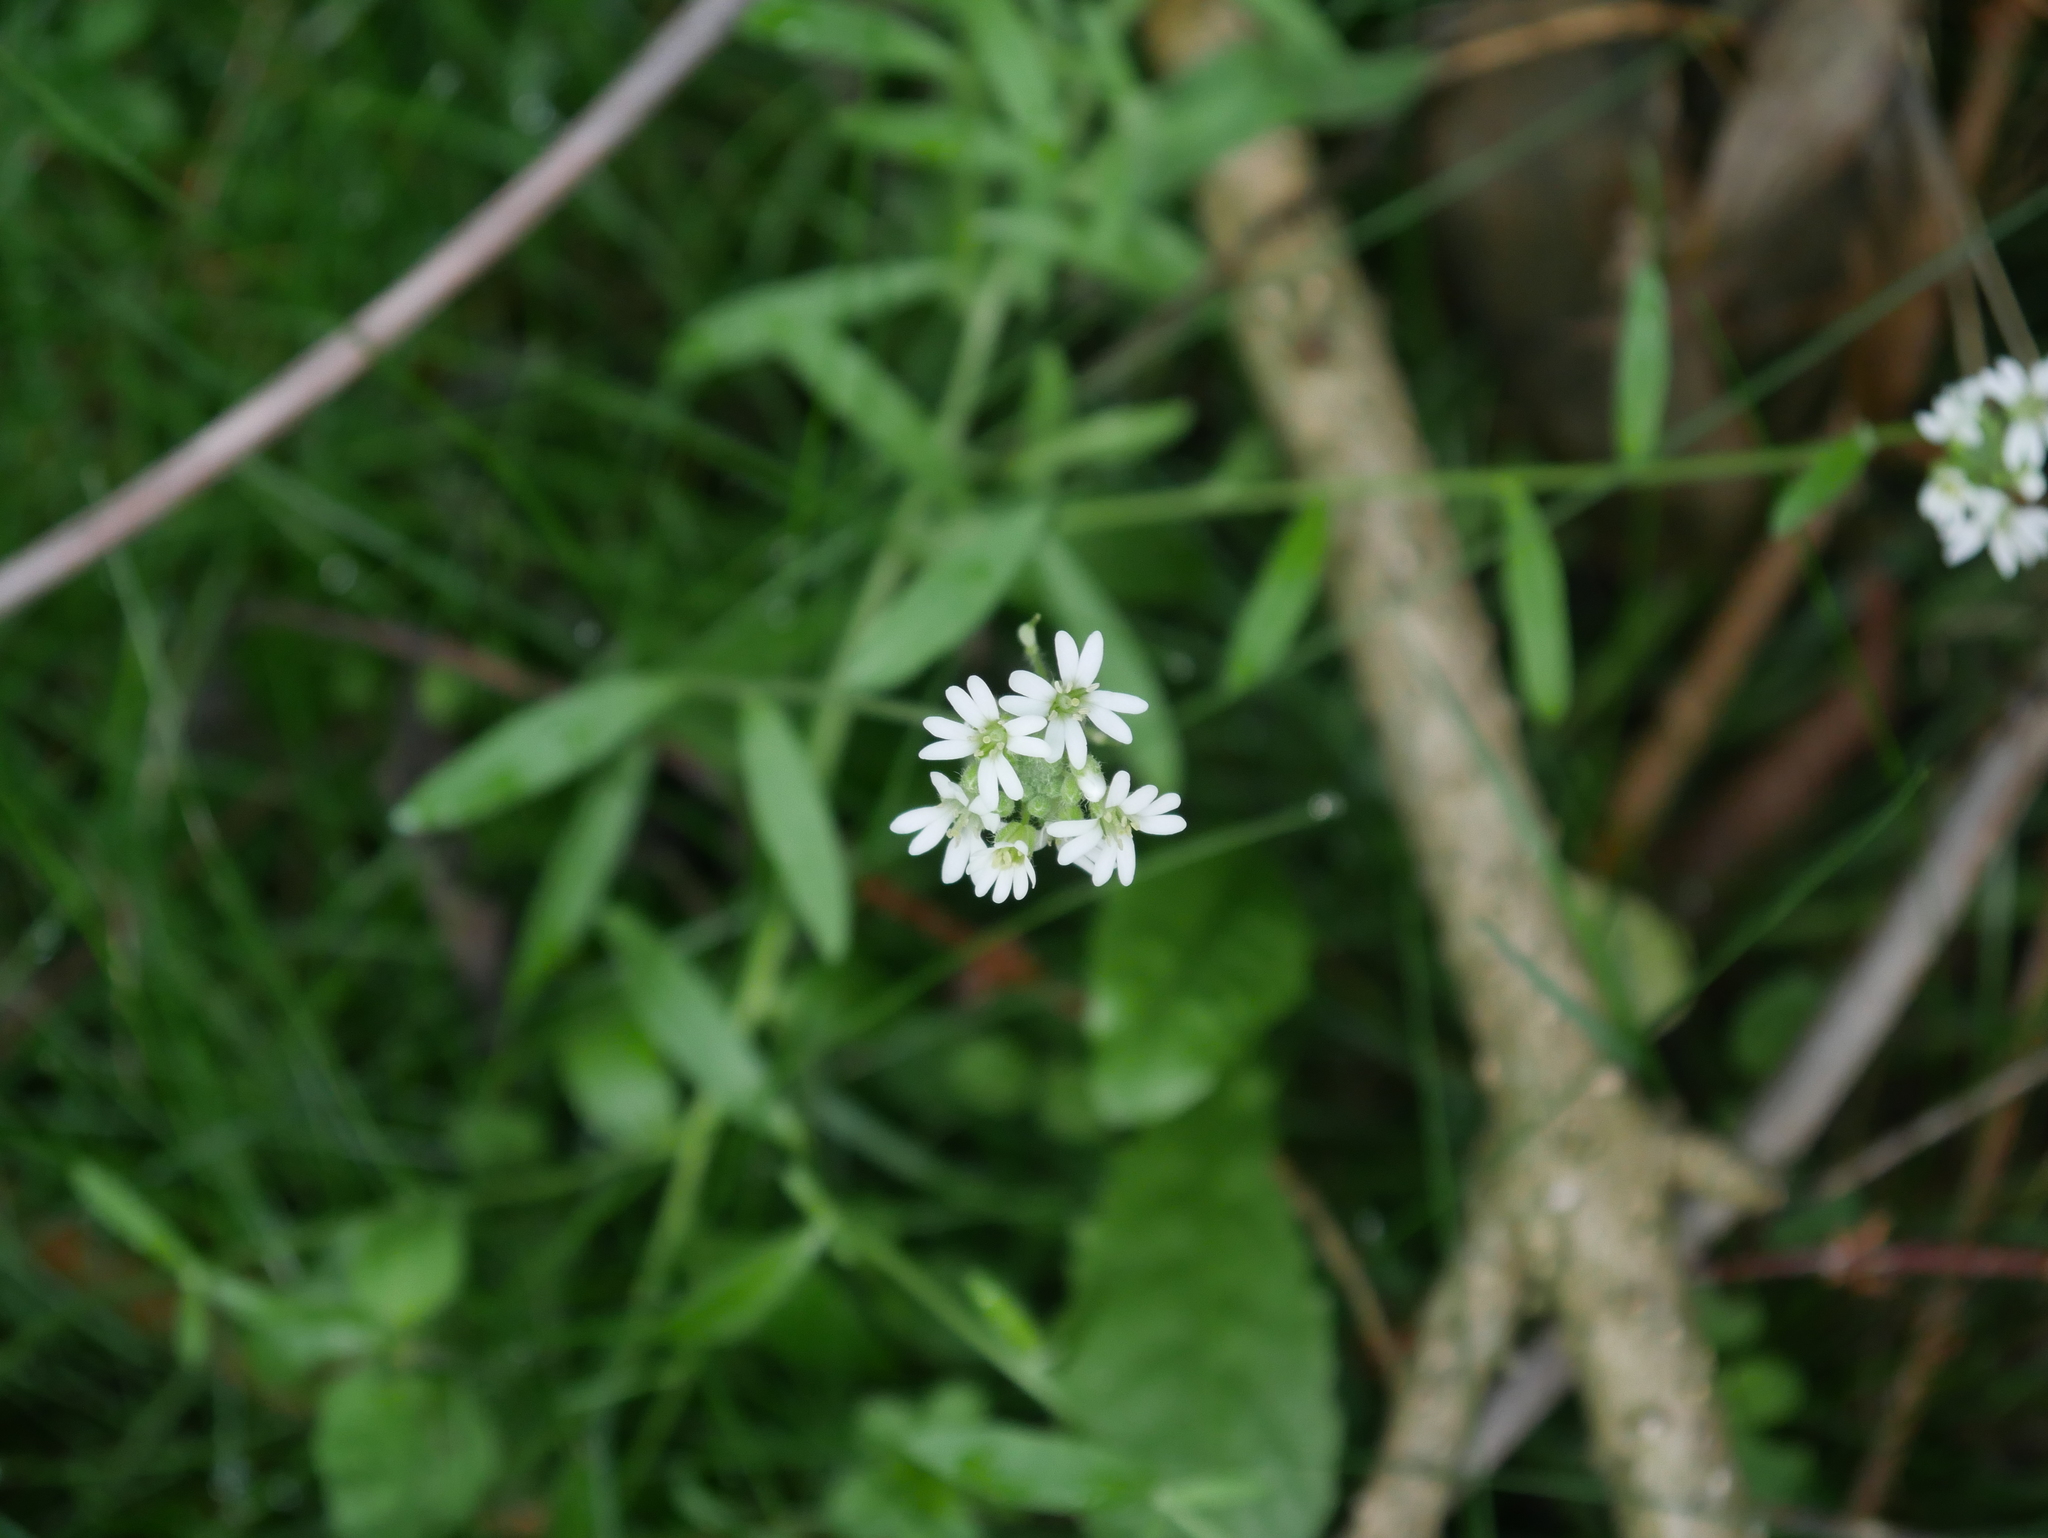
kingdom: Plantae
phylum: Tracheophyta
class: Magnoliopsida
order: Brassicales
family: Brassicaceae
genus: Berteroa
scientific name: Berteroa incana
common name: Hoary alison
